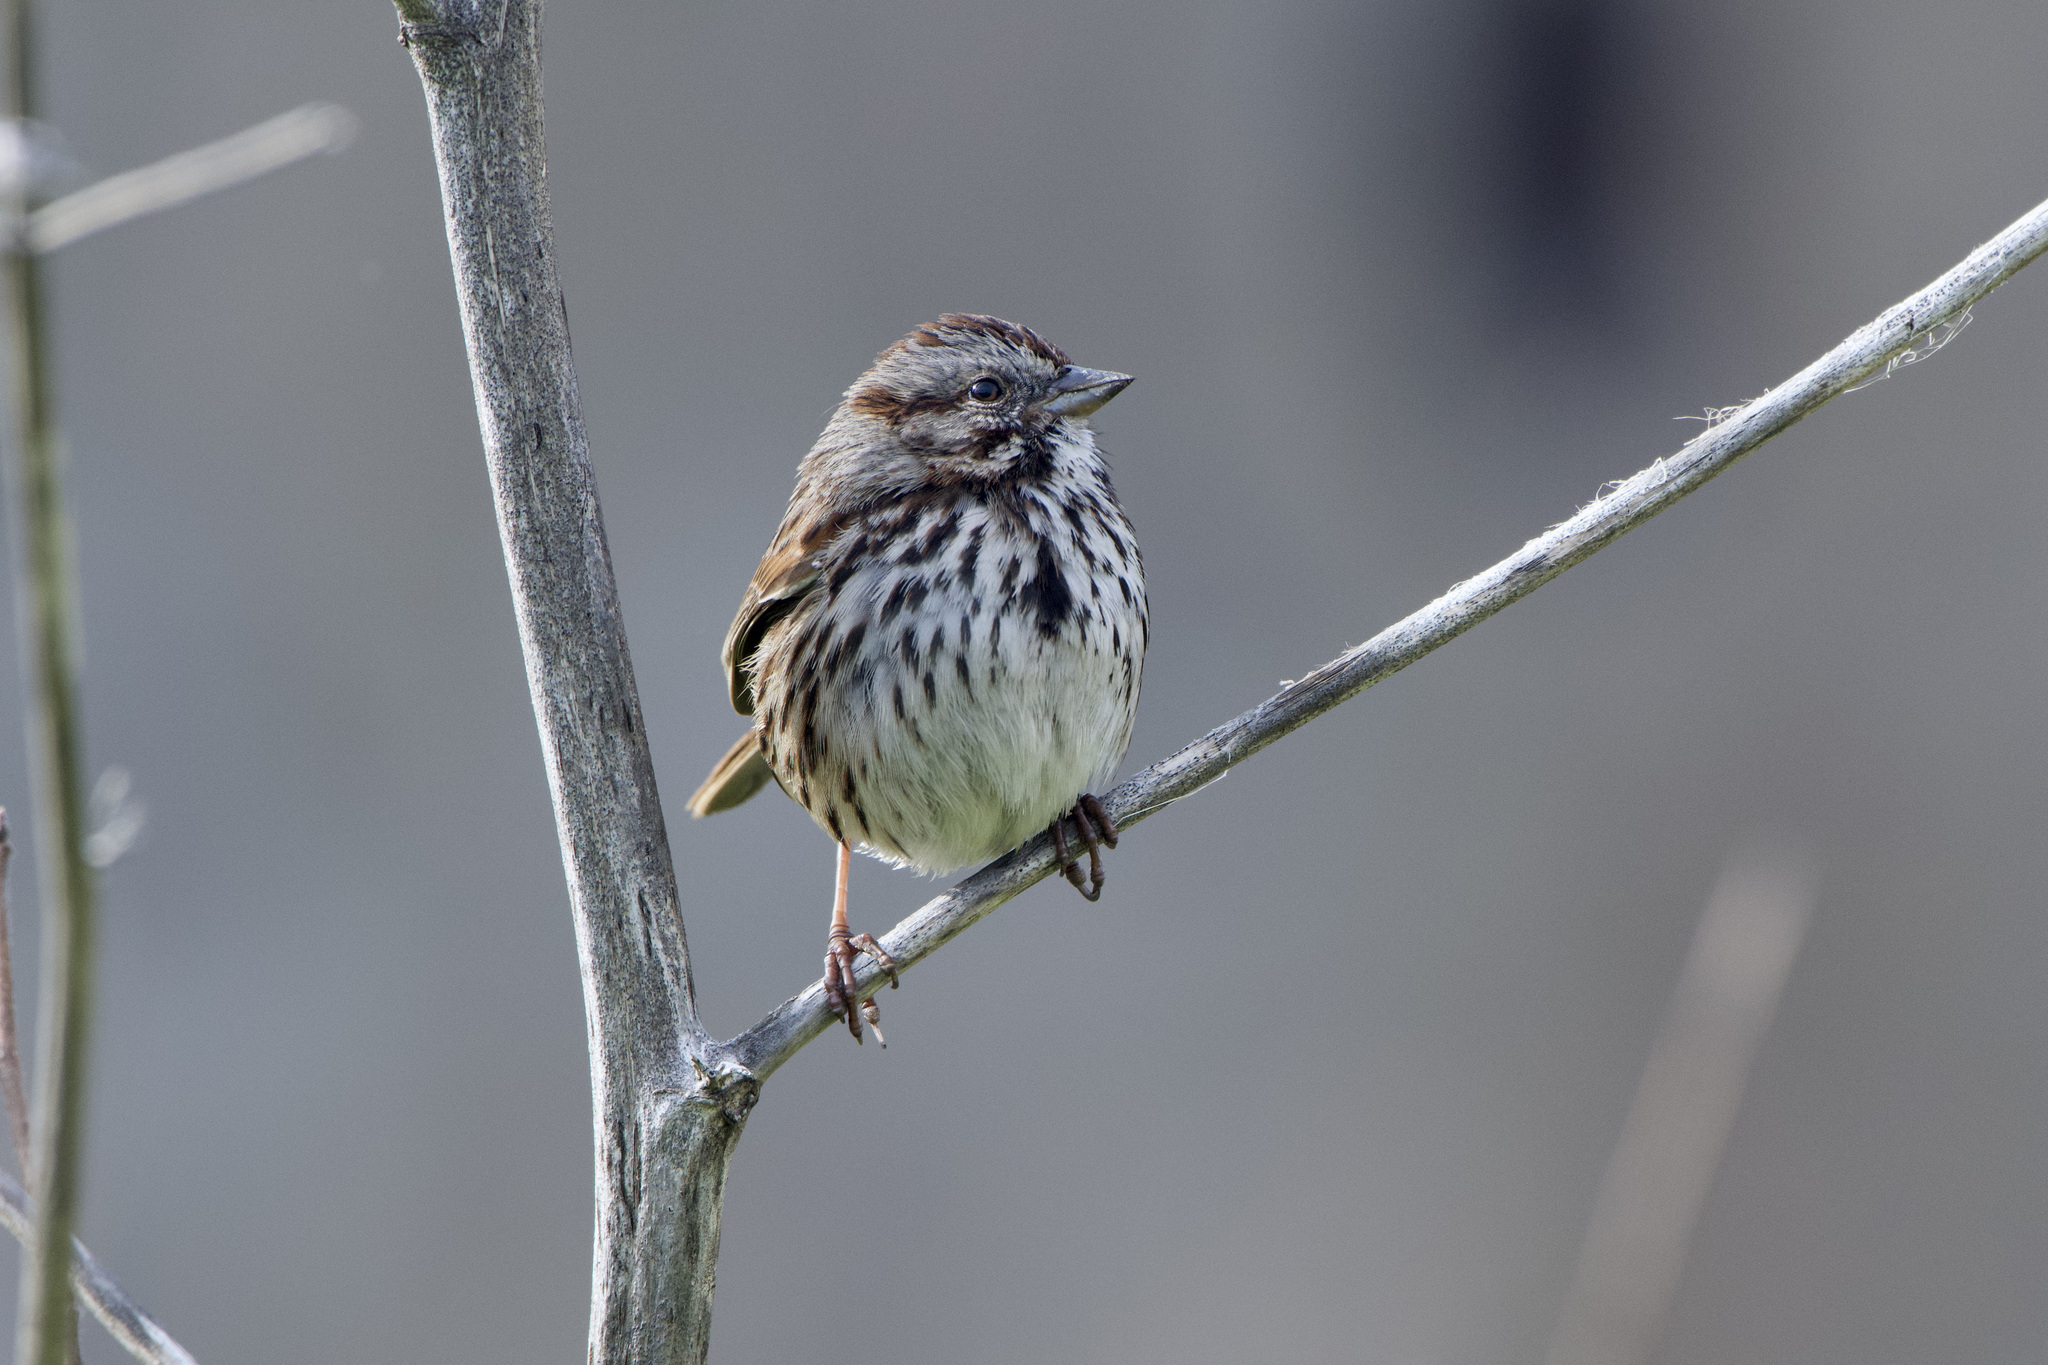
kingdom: Animalia
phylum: Chordata
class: Aves
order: Passeriformes
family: Passerellidae
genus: Melospiza
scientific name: Melospiza melodia
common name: Song sparrow
